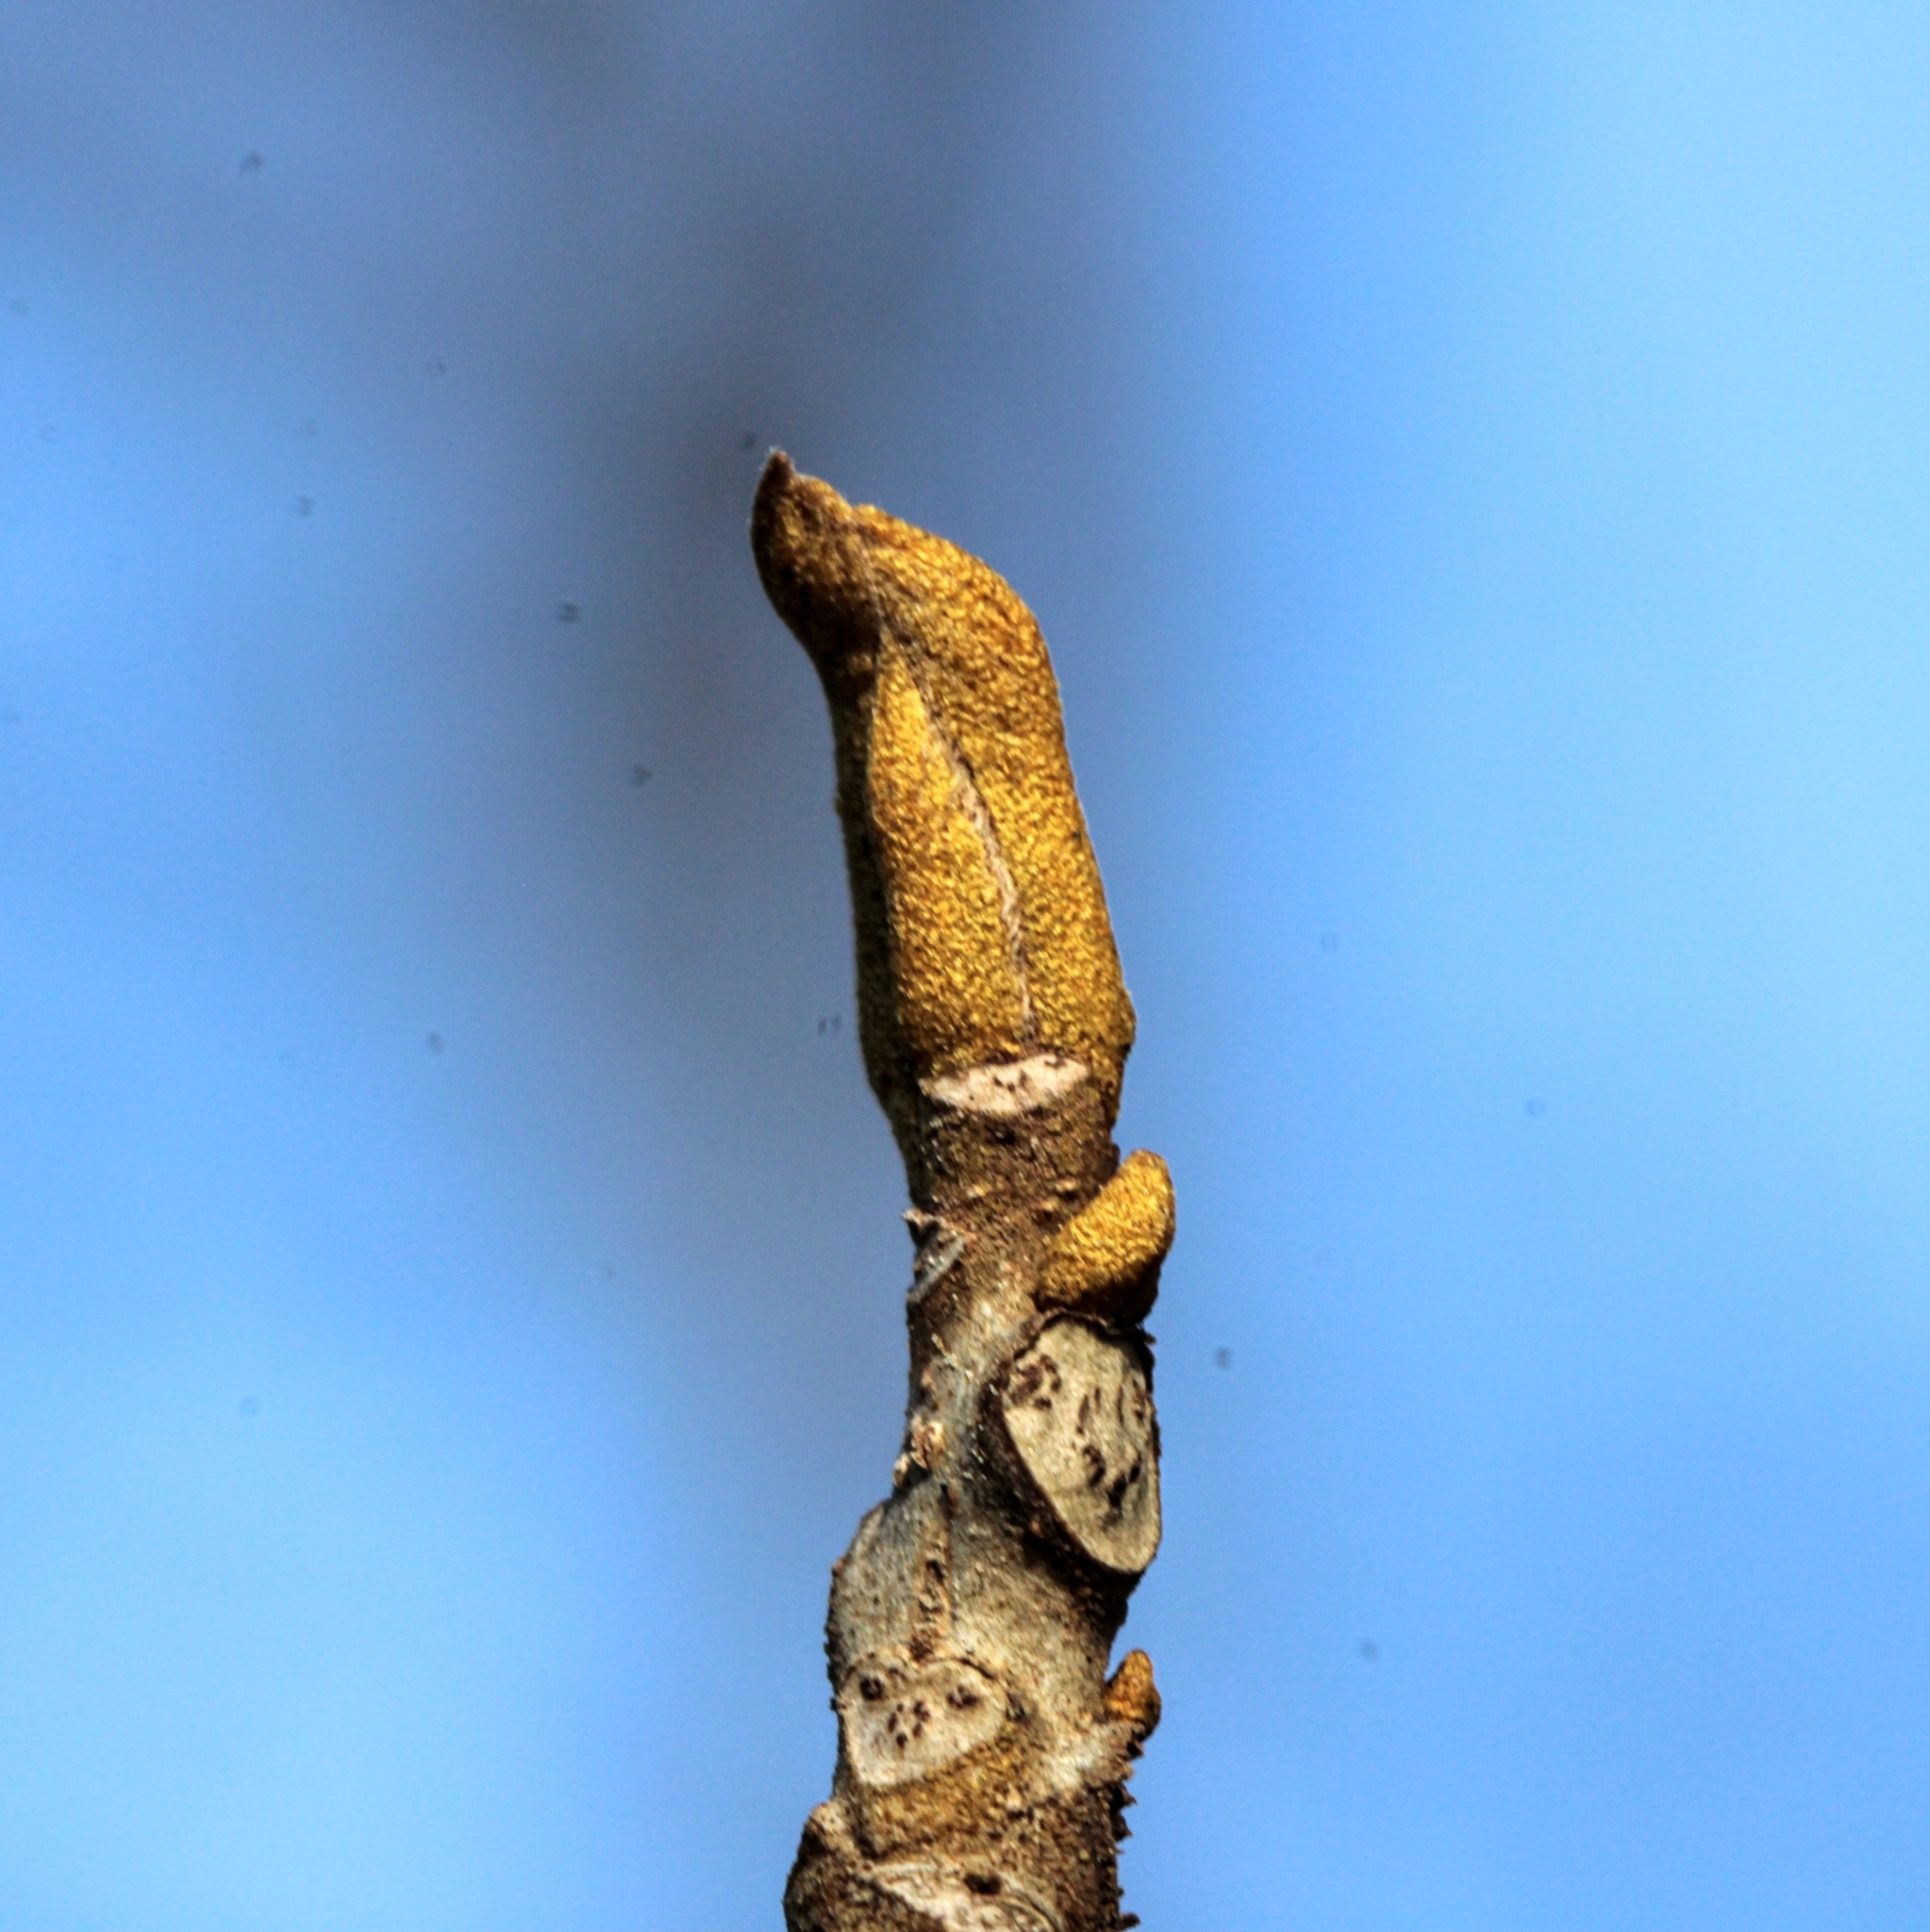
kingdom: Plantae
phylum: Tracheophyta
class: Magnoliopsida
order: Fagales
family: Juglandaceae
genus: Carya
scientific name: Carya cordiformis
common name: Bitternut hickory
